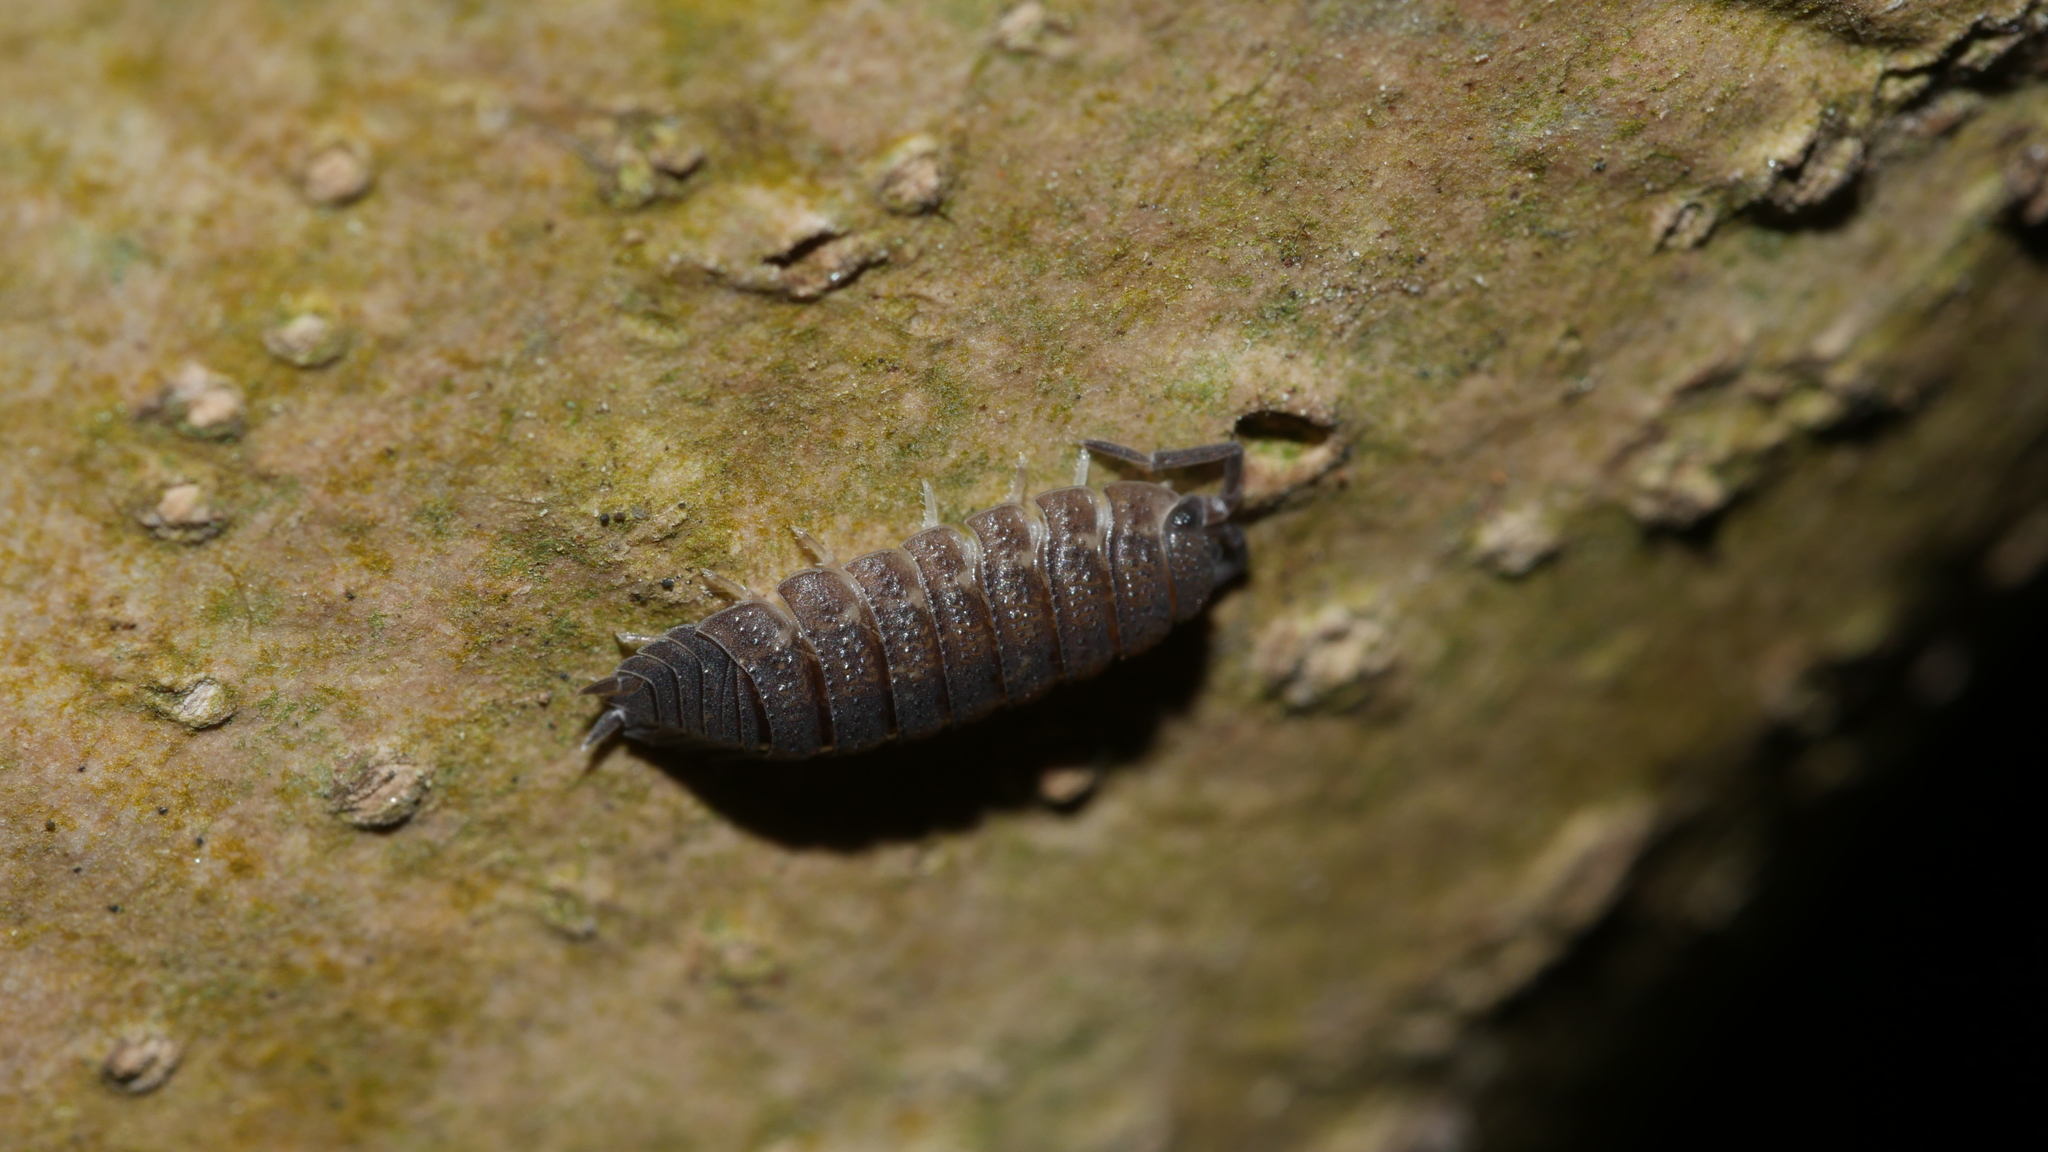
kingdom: Animalia
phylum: Arthropoda
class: Malacostraca
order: Isopoda
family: Porcellionidae
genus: Porcellio
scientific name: Porcellio scaber
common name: Common rough woodlouse
